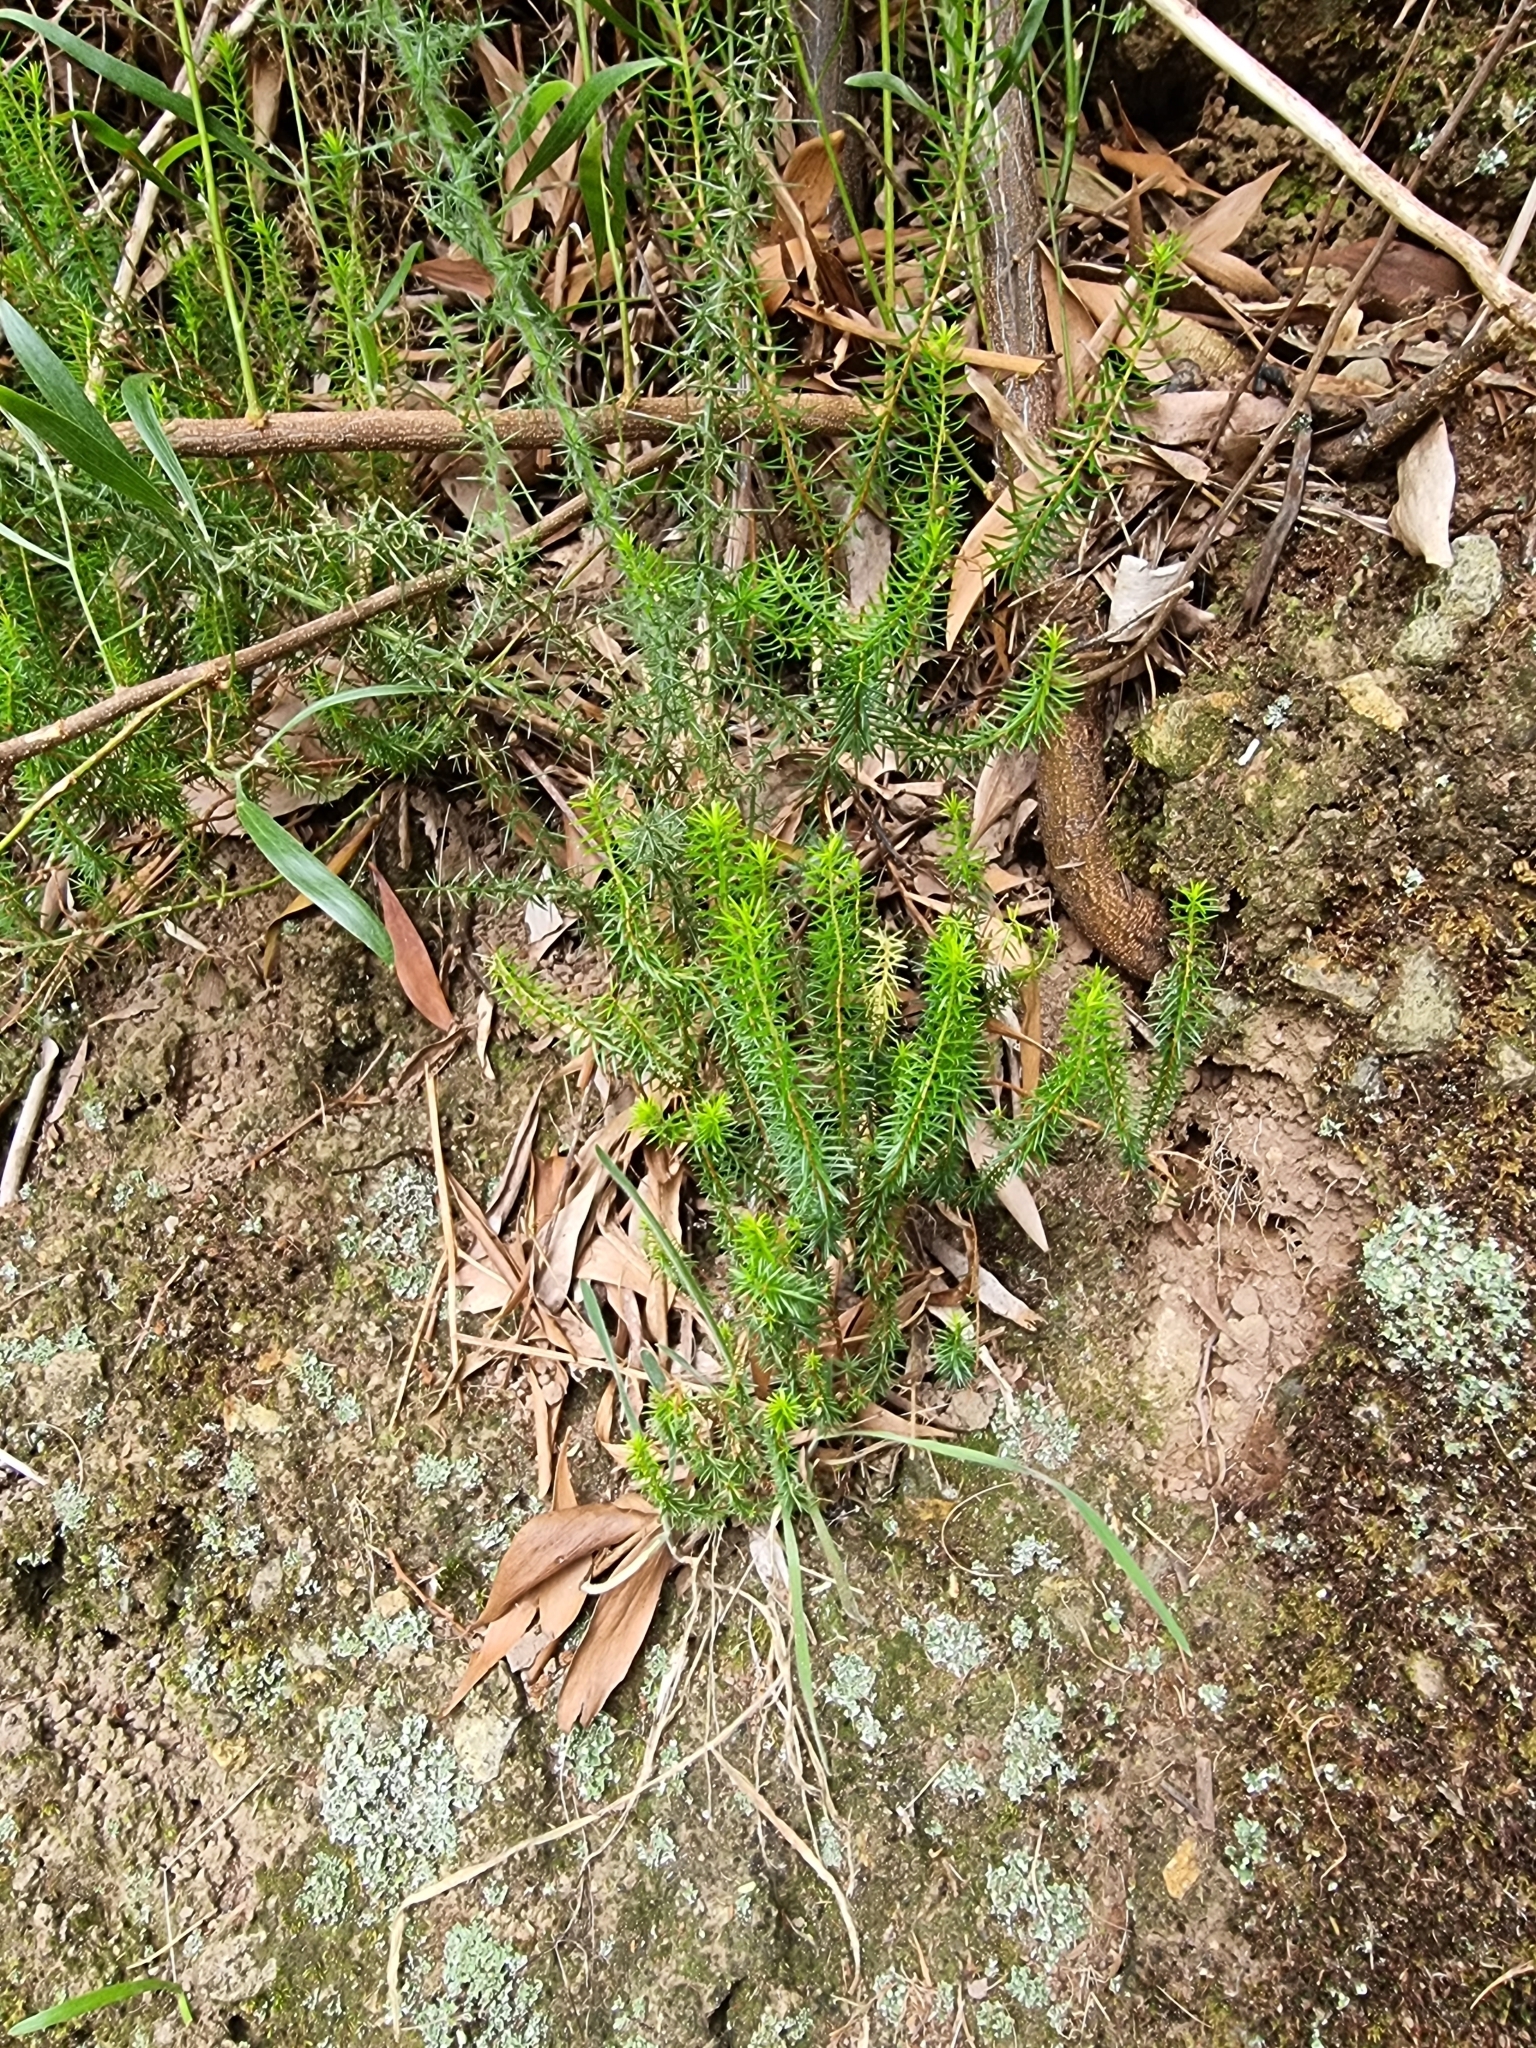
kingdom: Plantae
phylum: Tracheophyta
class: Magnoliopsida
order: Ericales
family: Ericaceae
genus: Erica
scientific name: Erica platycodon
